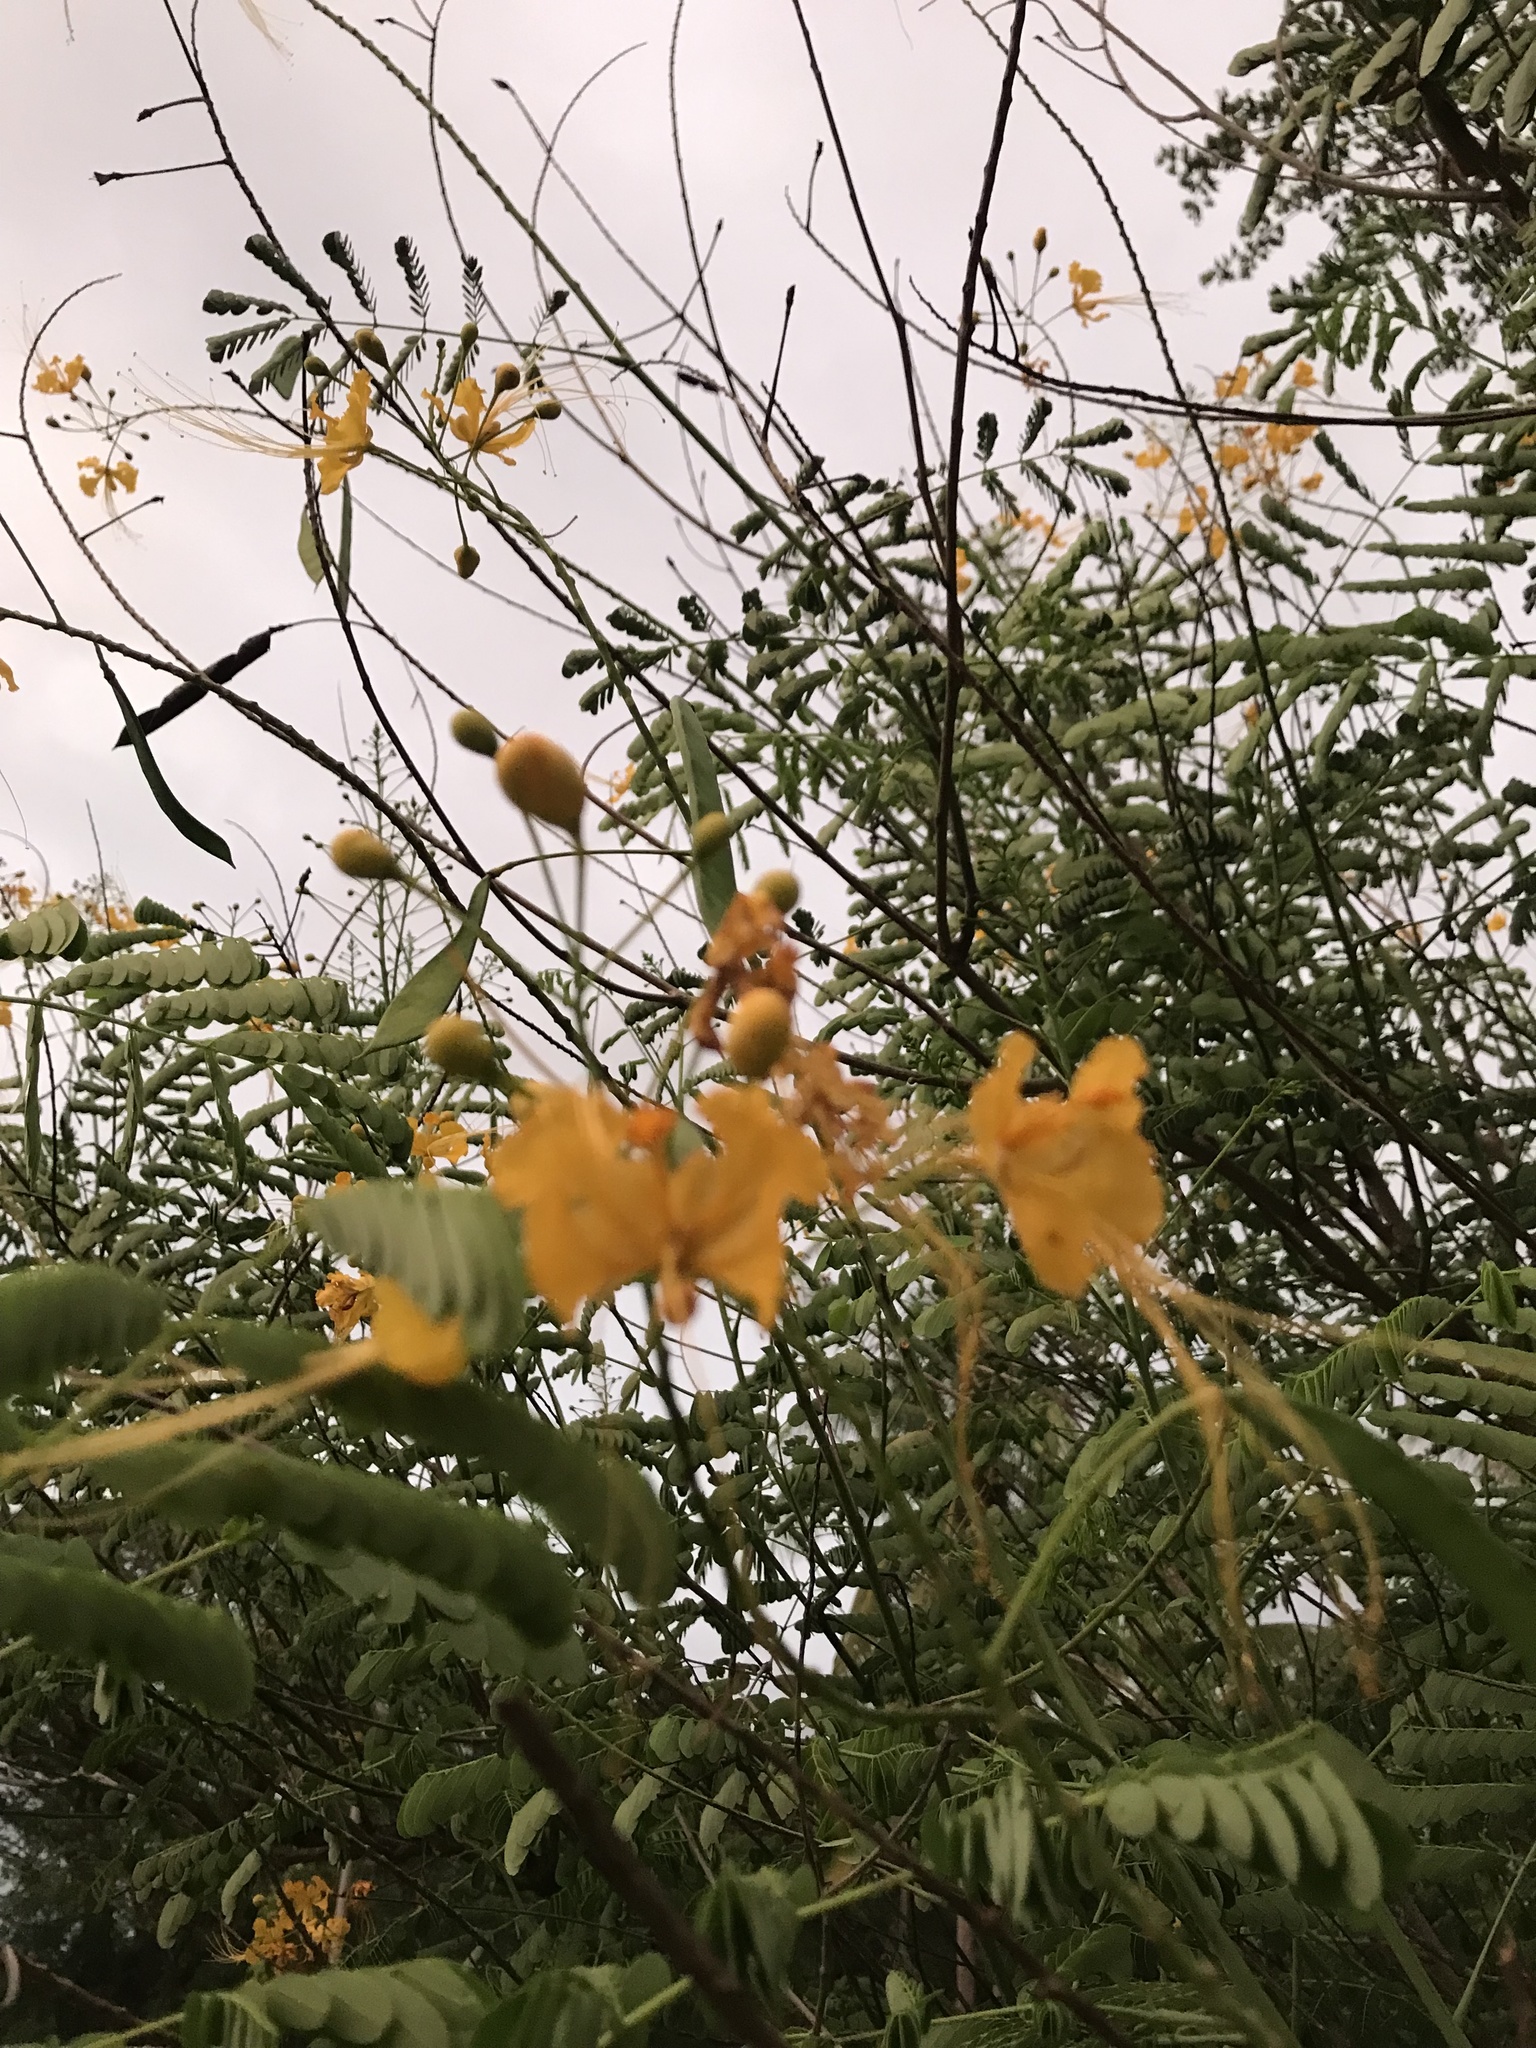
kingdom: Plantae
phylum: Tracheophyta
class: Magnoliopsida
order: Fabales
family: Fabaceae
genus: Caesalpinia
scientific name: Caesalpinia pulcherrima
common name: Pride-of-barbados
